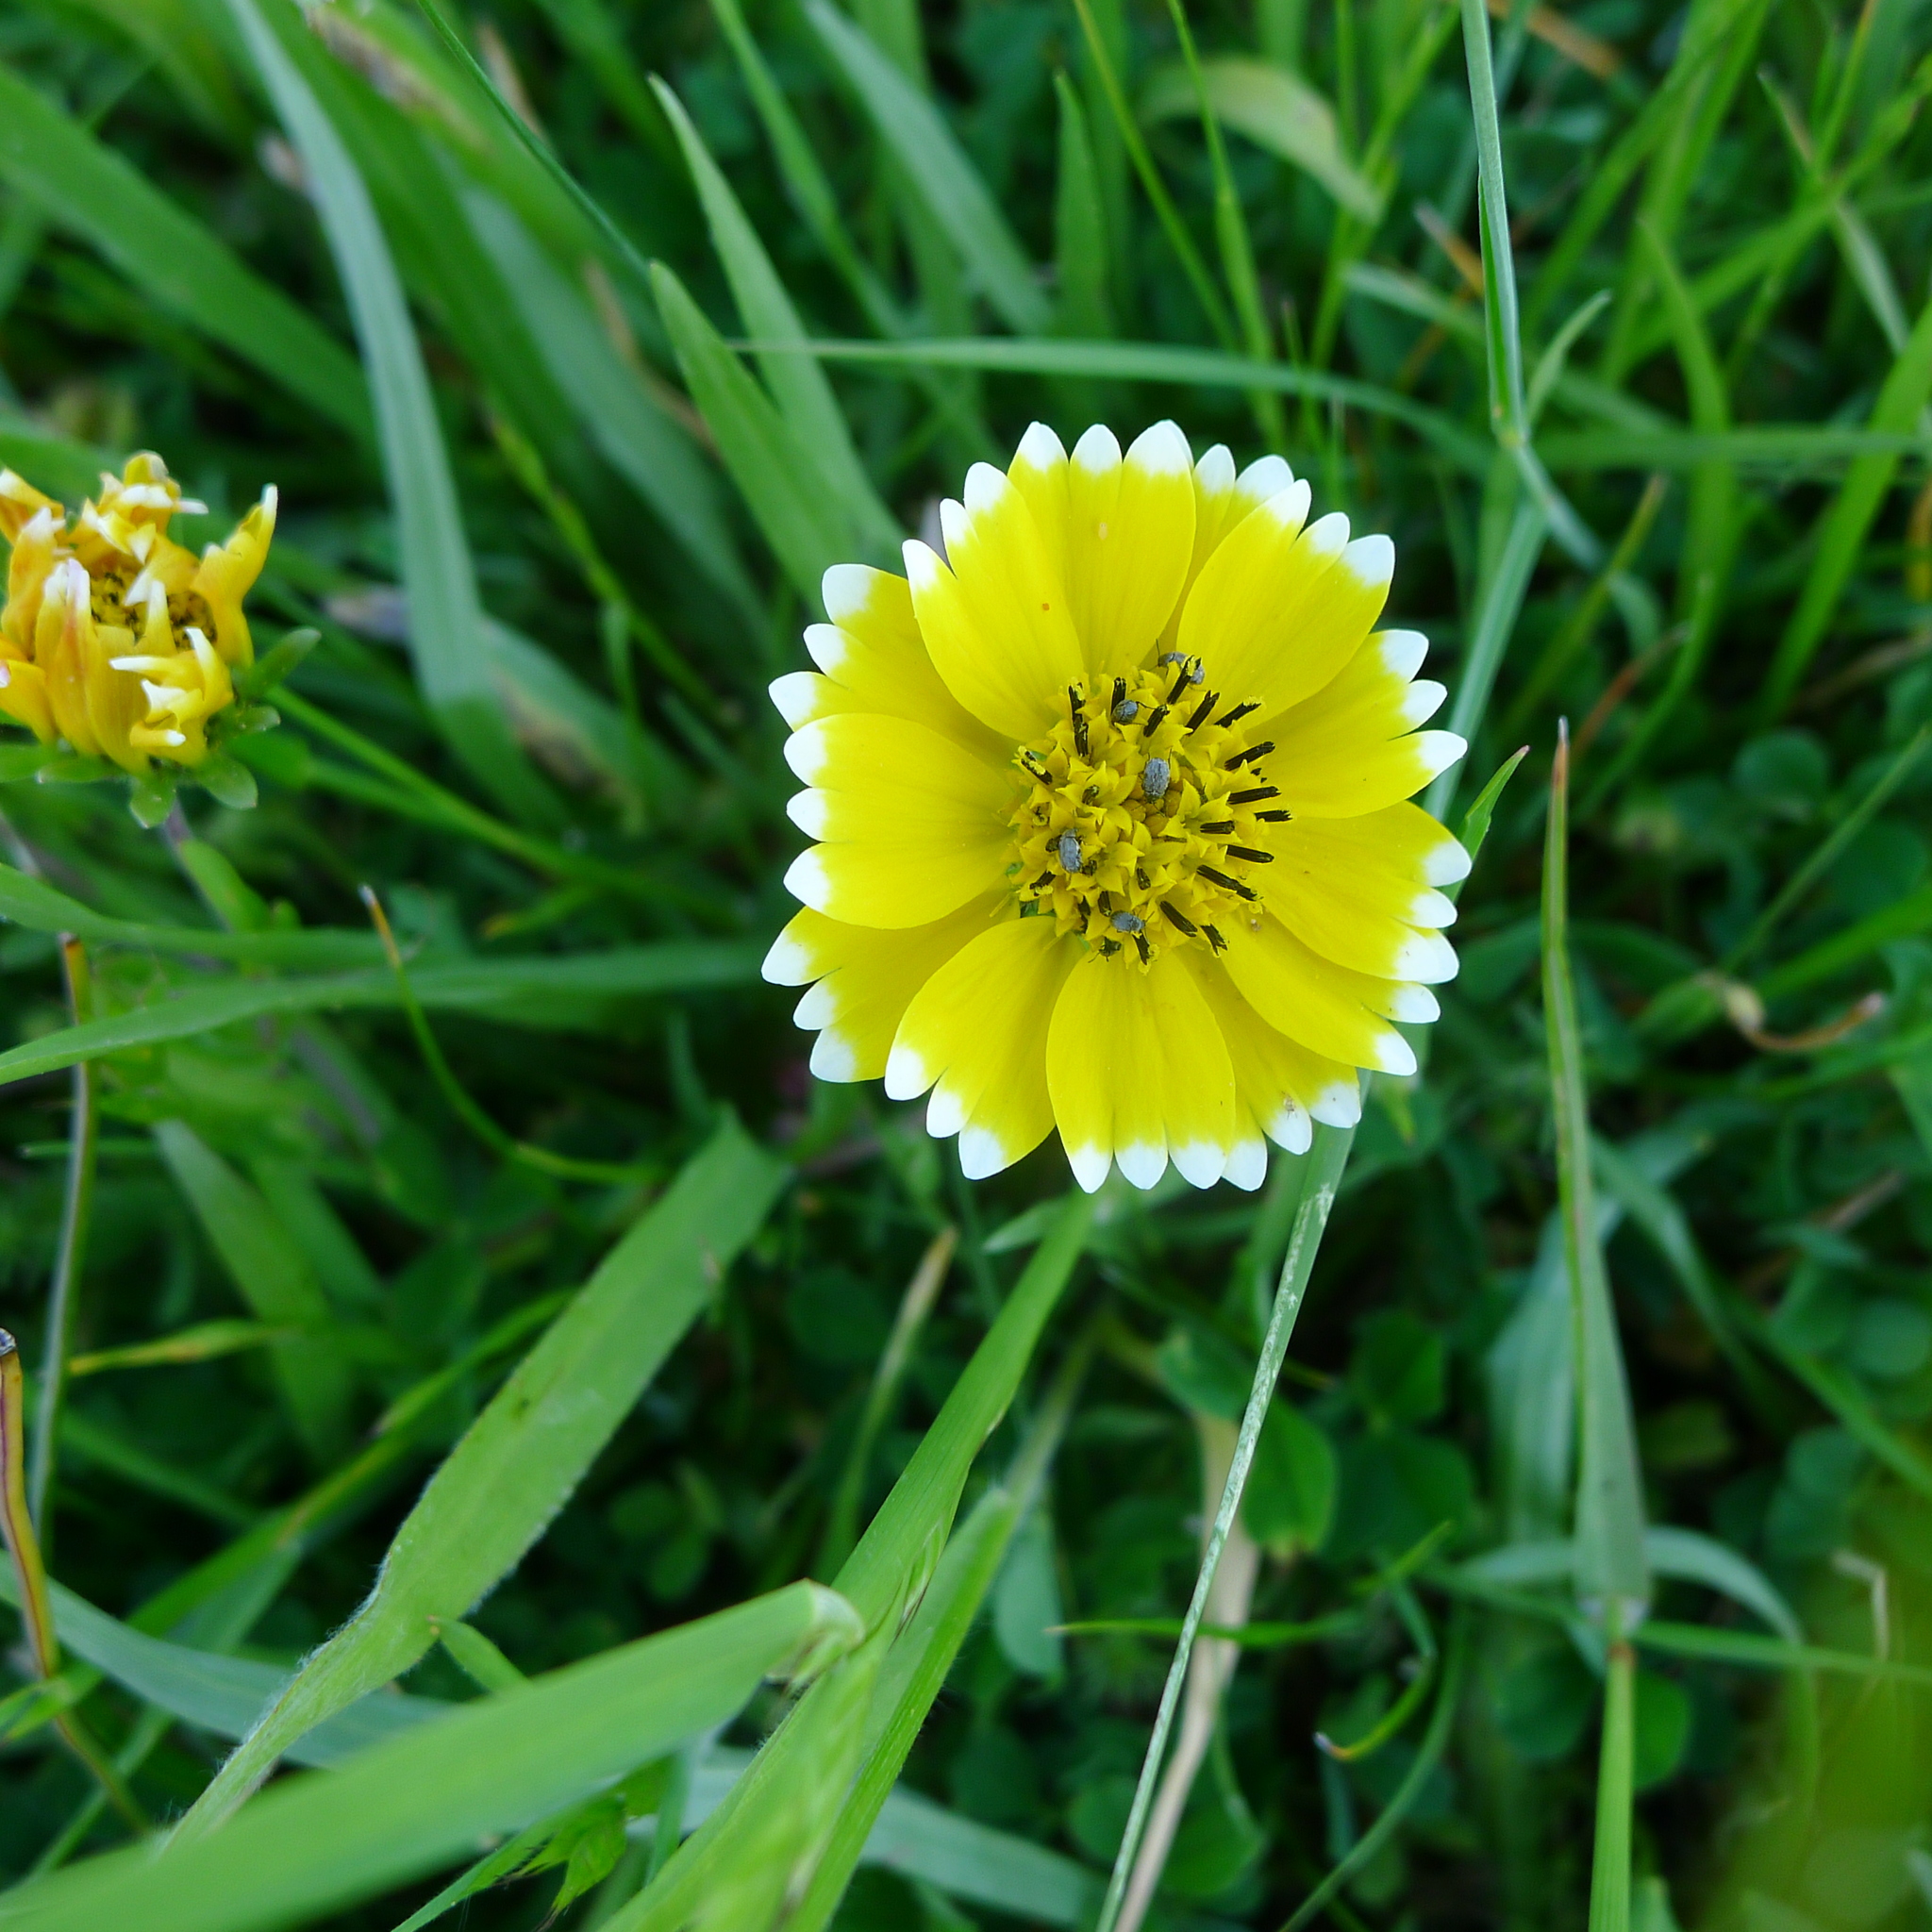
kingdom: Plantae
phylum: Tracheophyta
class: Magnoliopsida
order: Asterales
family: Asteraceae
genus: Layia
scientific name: Layia platyglossa
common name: Tidy-tips
